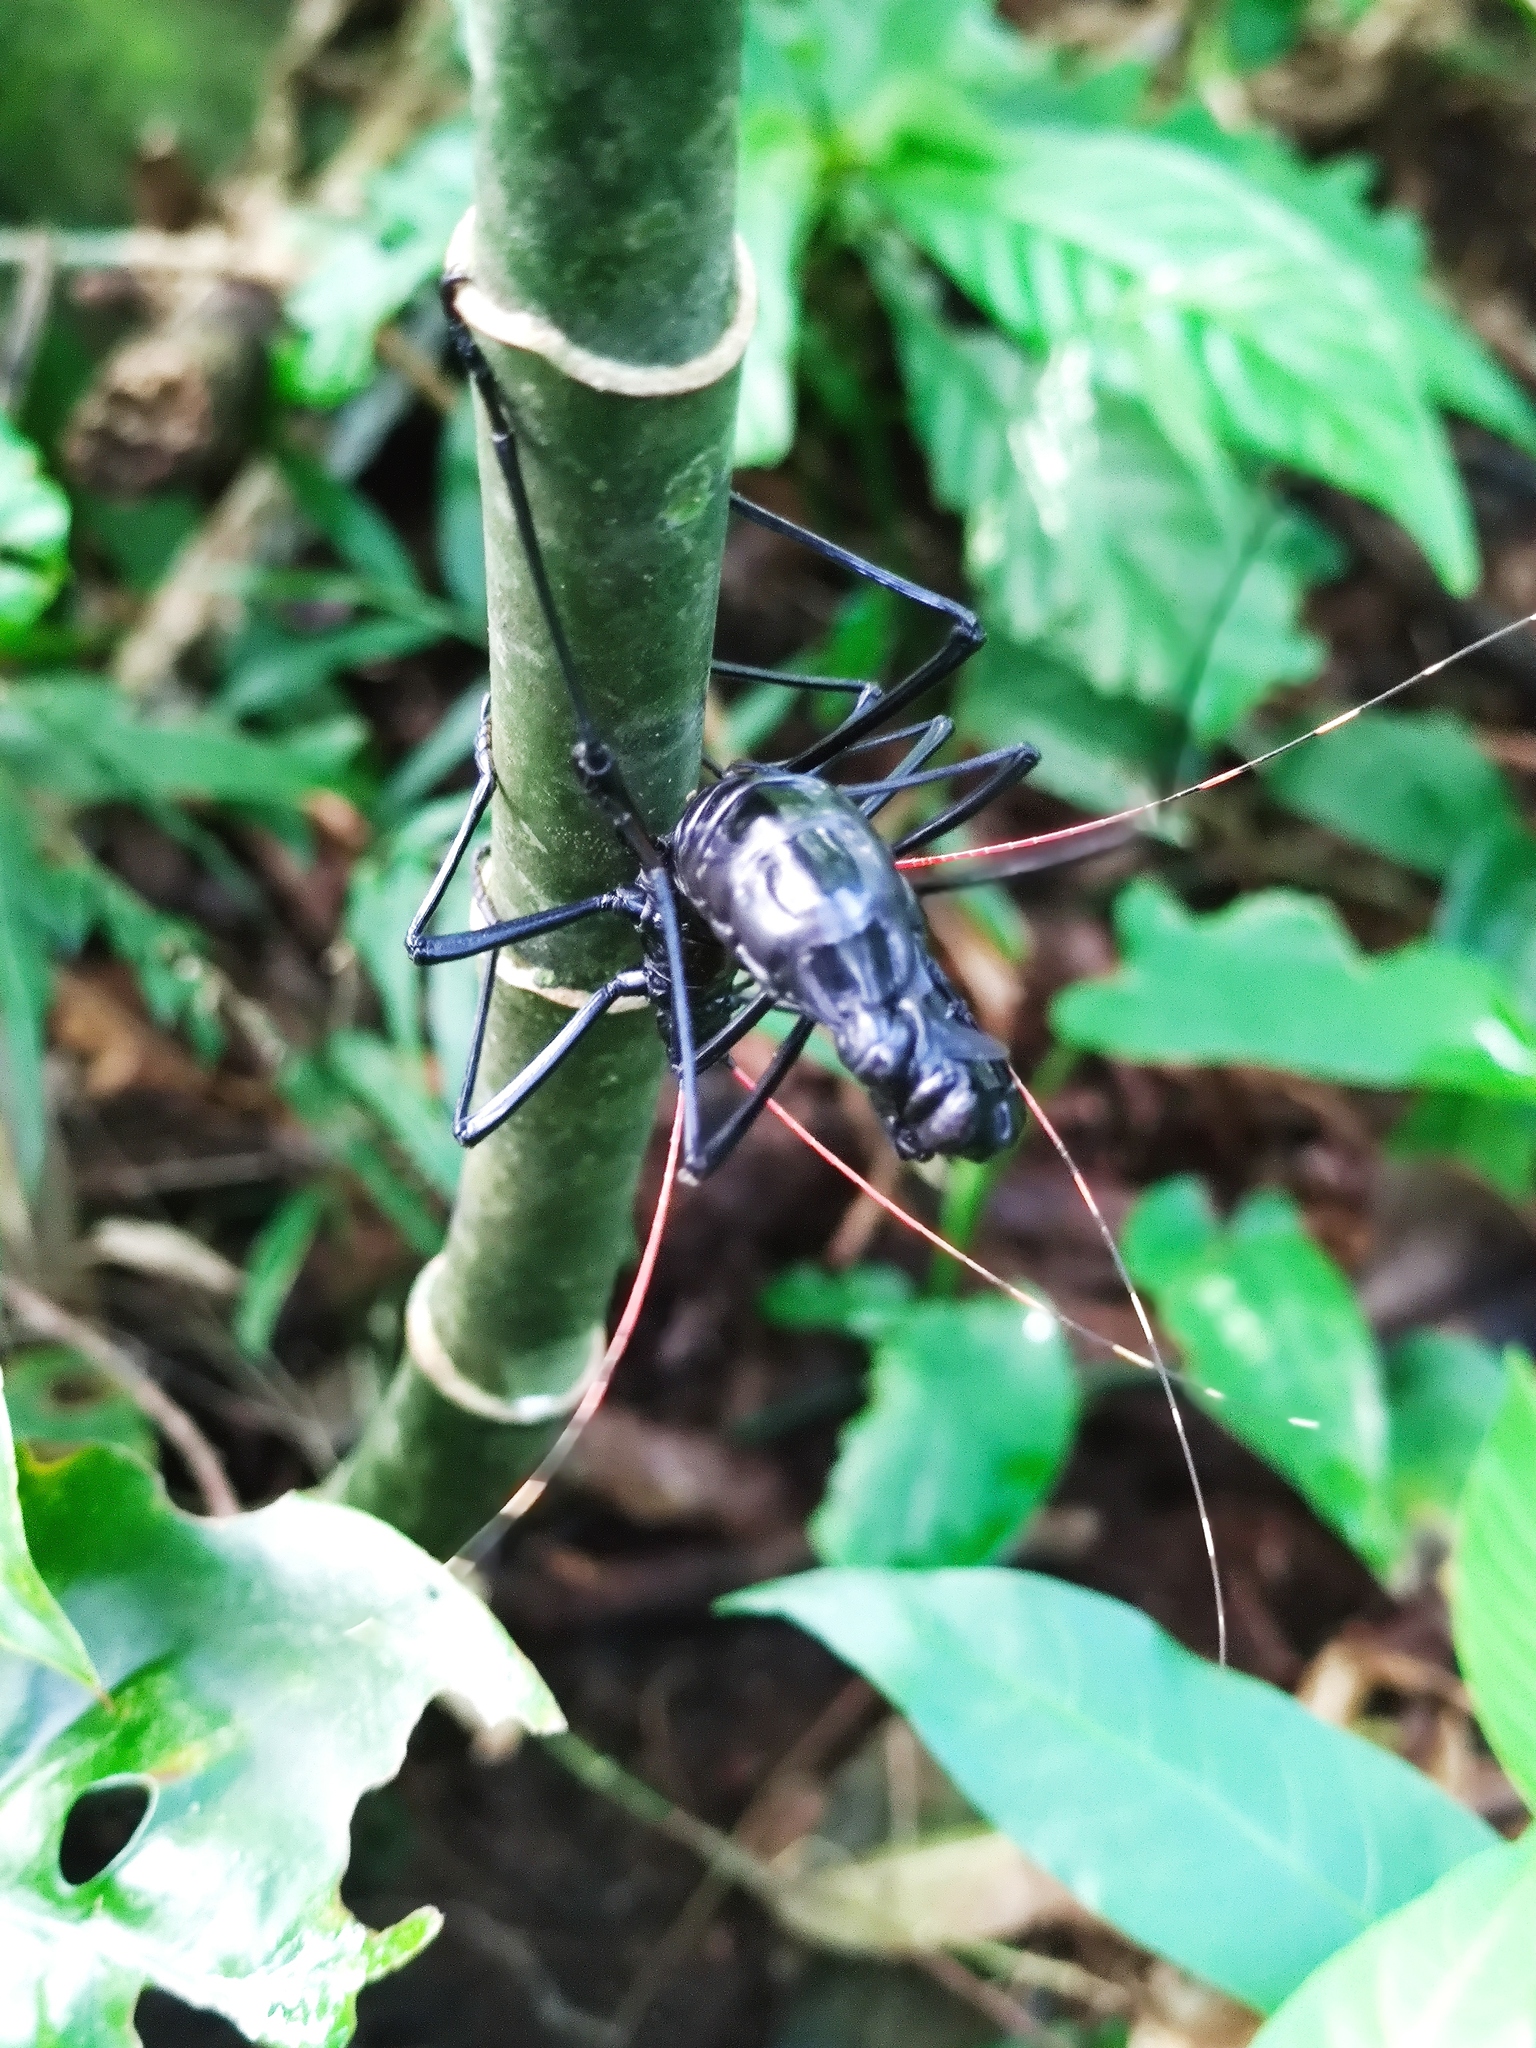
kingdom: Animalia
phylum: Arthropoda
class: Insecta
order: Phasmida
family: Pseudophasmatidae
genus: Autolyca
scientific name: Autolyca pallidicornis
